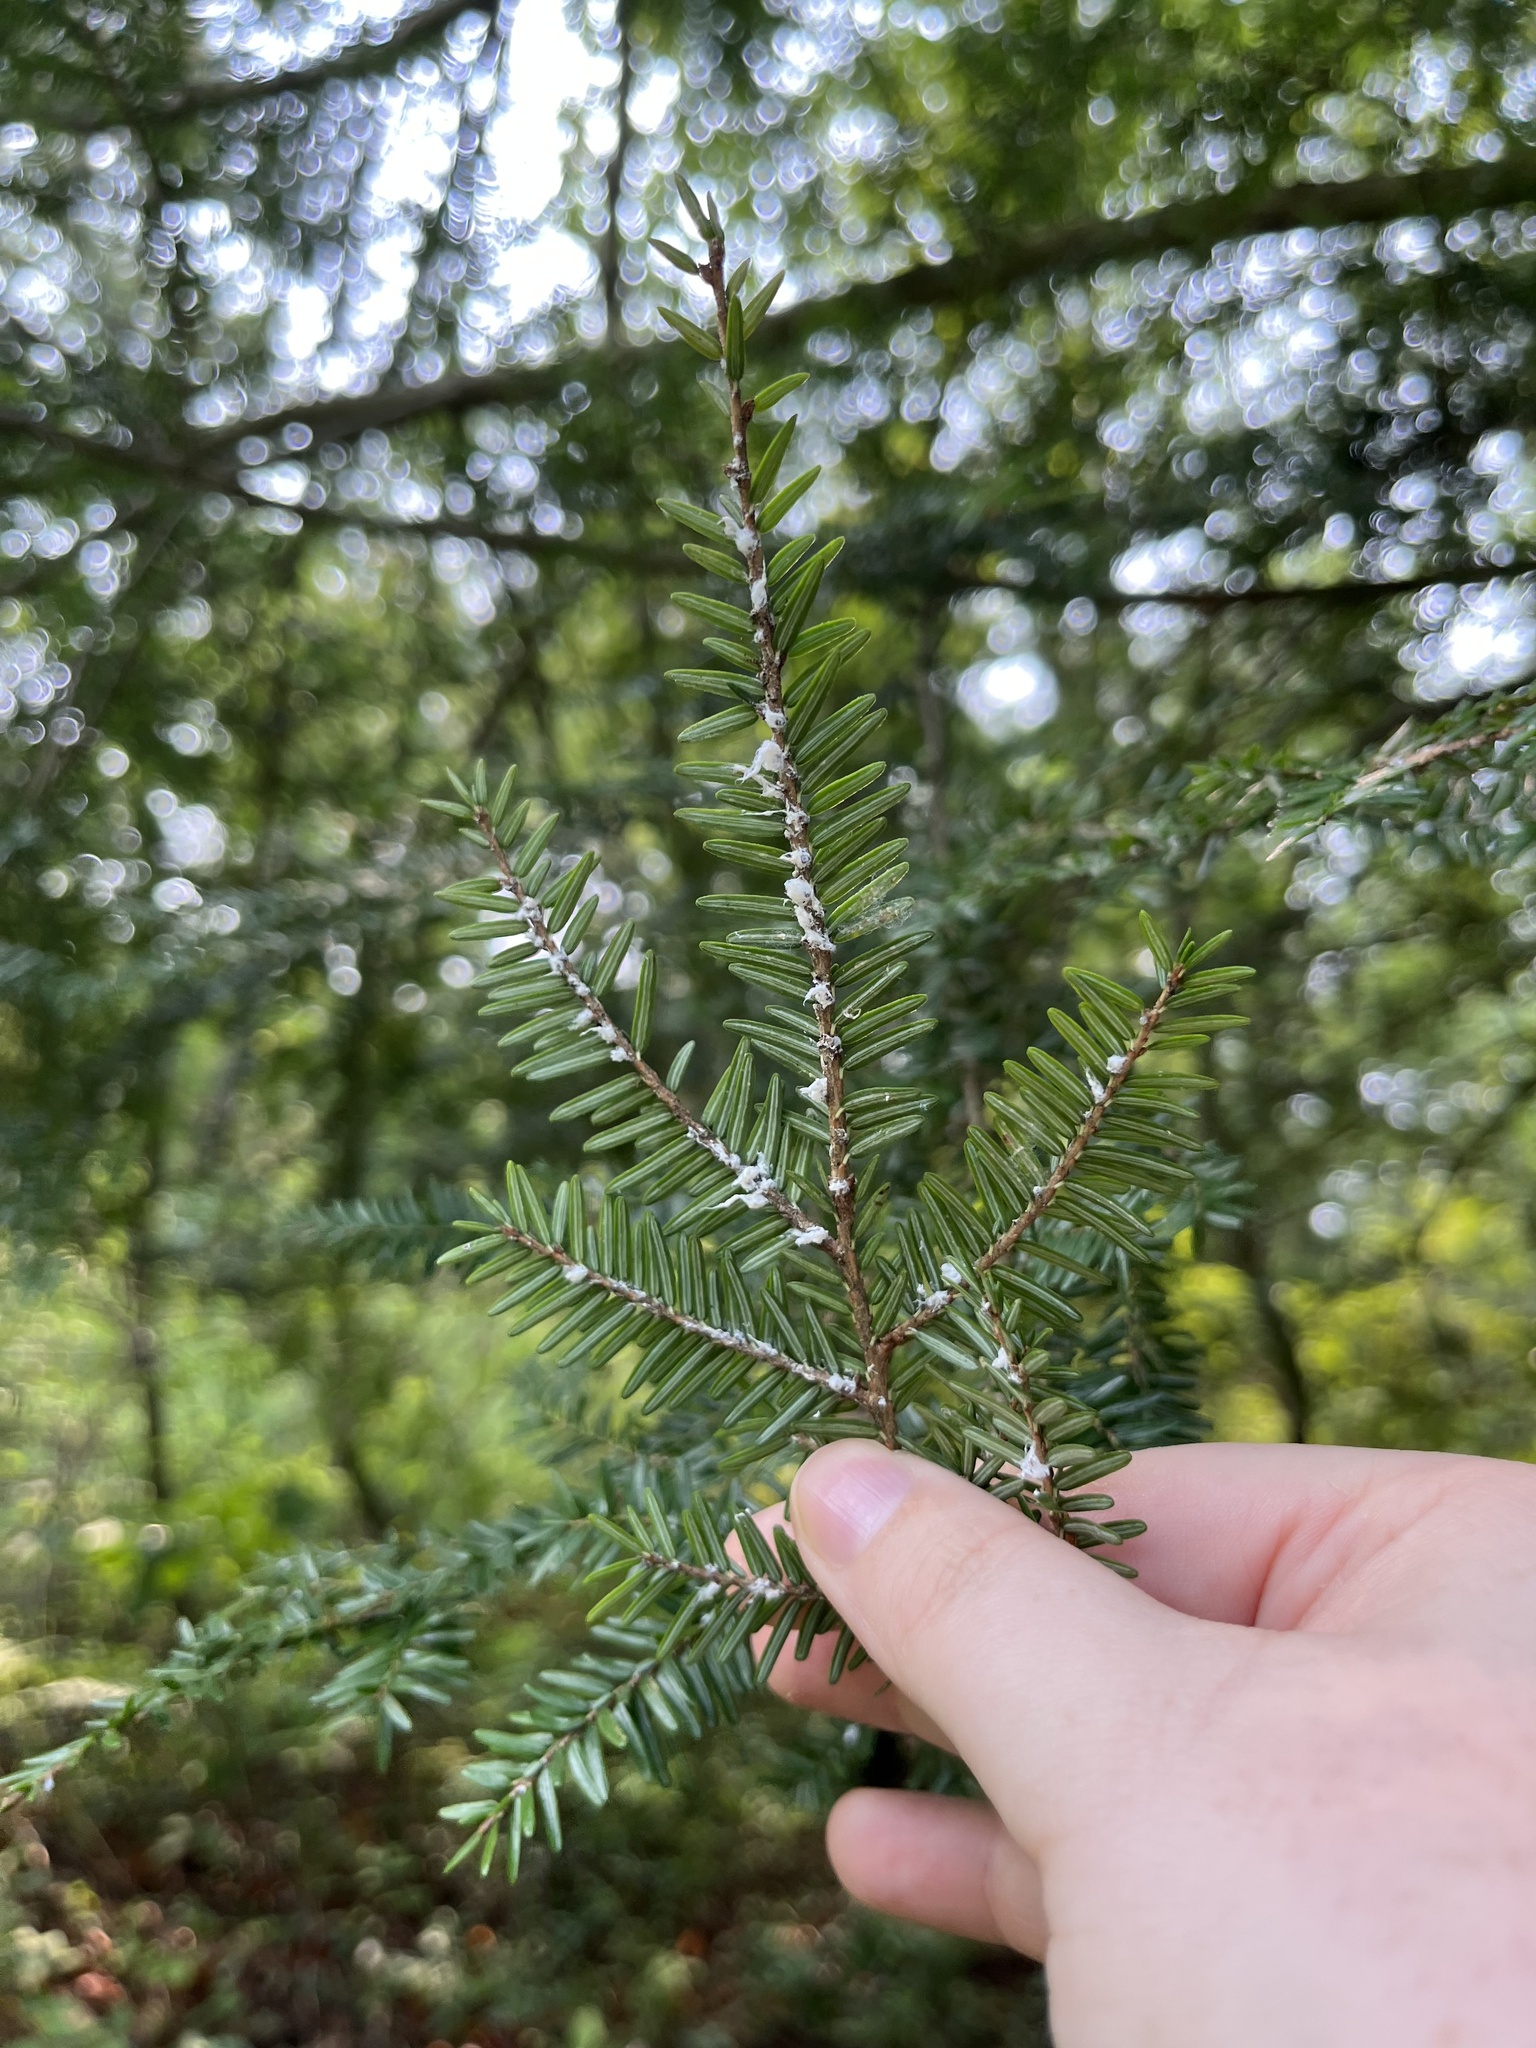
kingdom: Plantae
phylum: Tracheophyta
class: Pinopsida
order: Pinales
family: Pinaceae
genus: Tsuga
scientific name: Tsuga canadensis
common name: Eastern hemlock
